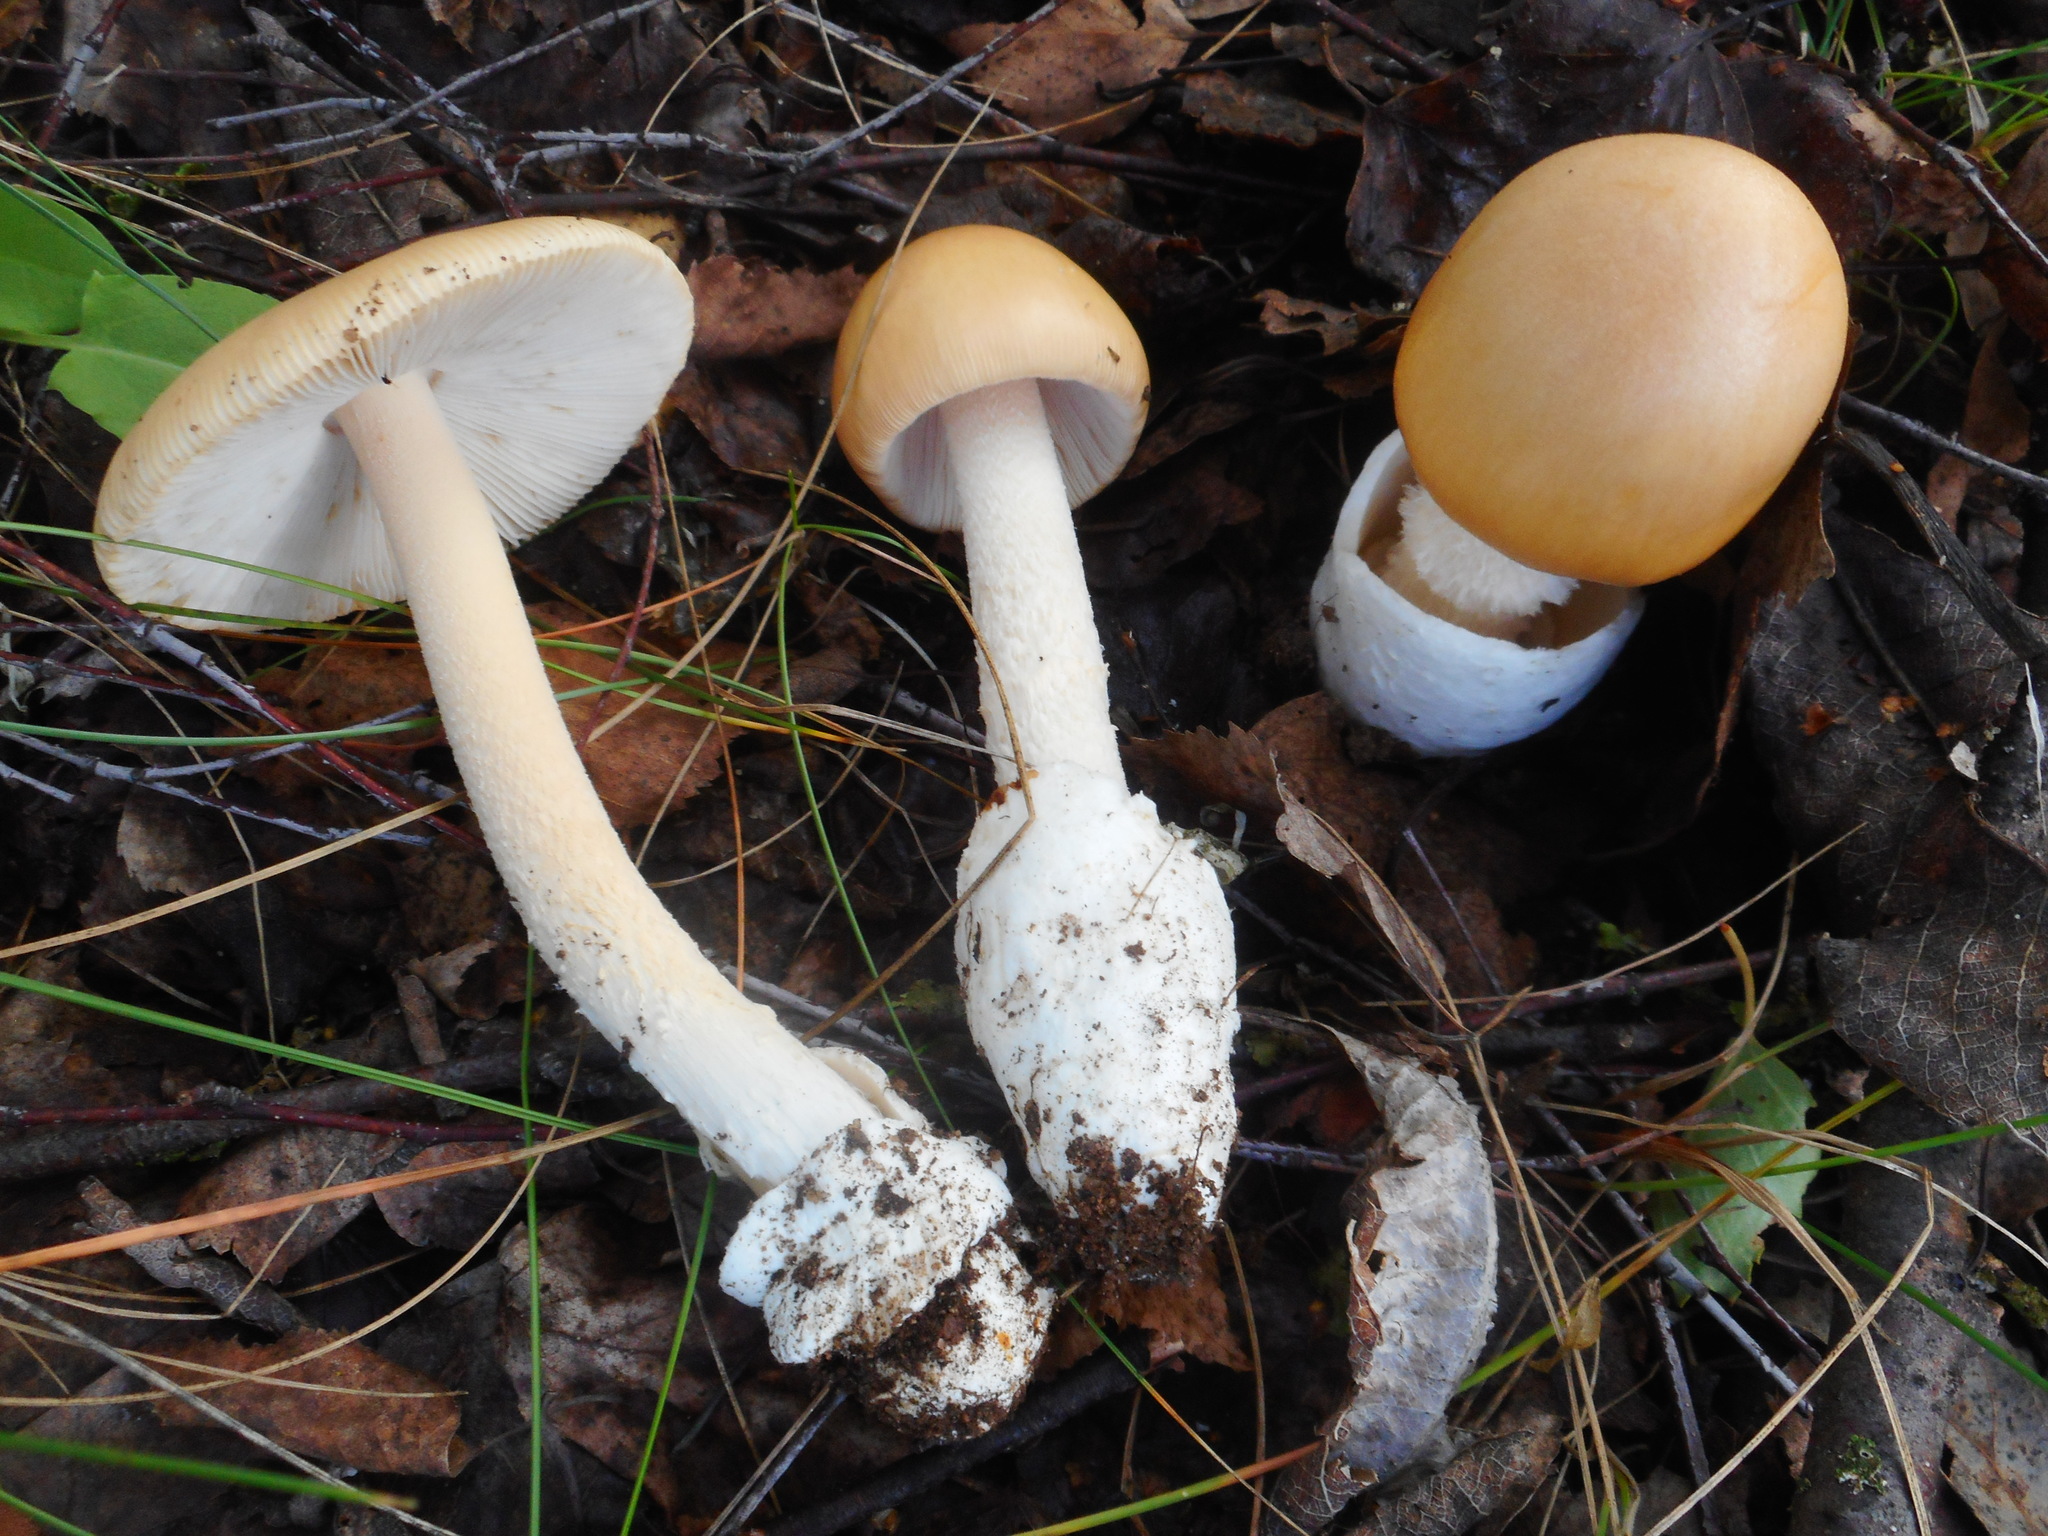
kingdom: Fungi
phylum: Basidiomycota
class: Agaricomycetes
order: Agaricales
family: Amanitaceae
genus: Amanita
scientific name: Amanita crocea
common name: Orange grisette
